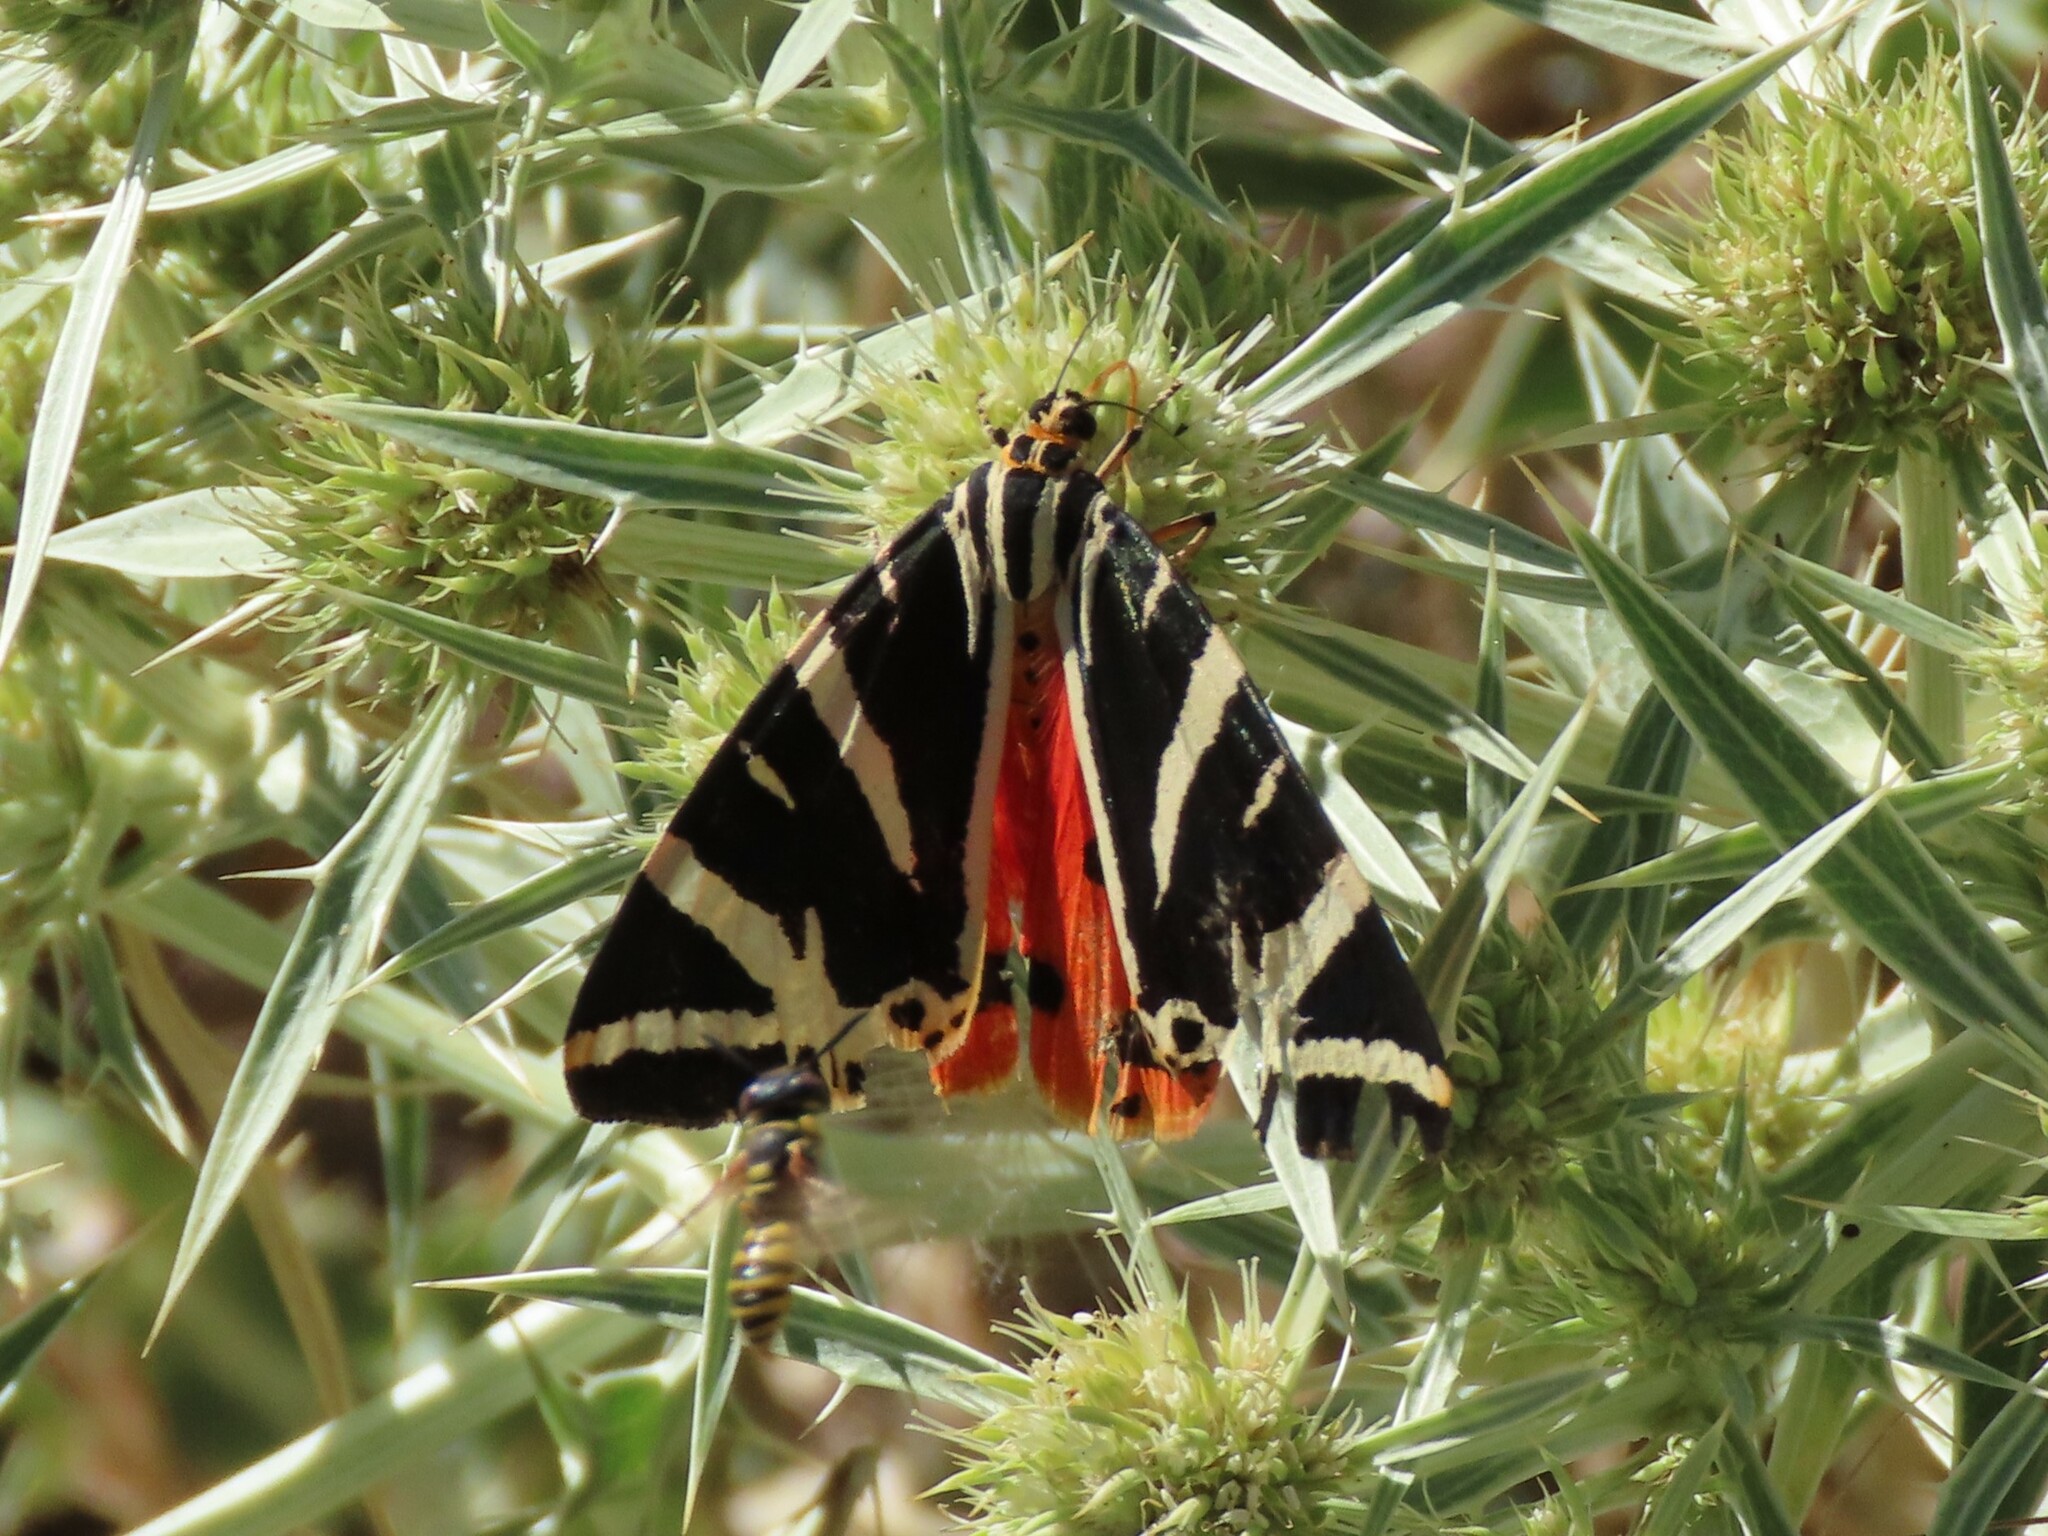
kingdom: Animalia
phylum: Arthropoda
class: Insecta
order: Lepidoptera
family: Erebidae
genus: Euplagia
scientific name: Euplagia quadripunctaria
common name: Jersey tiger
